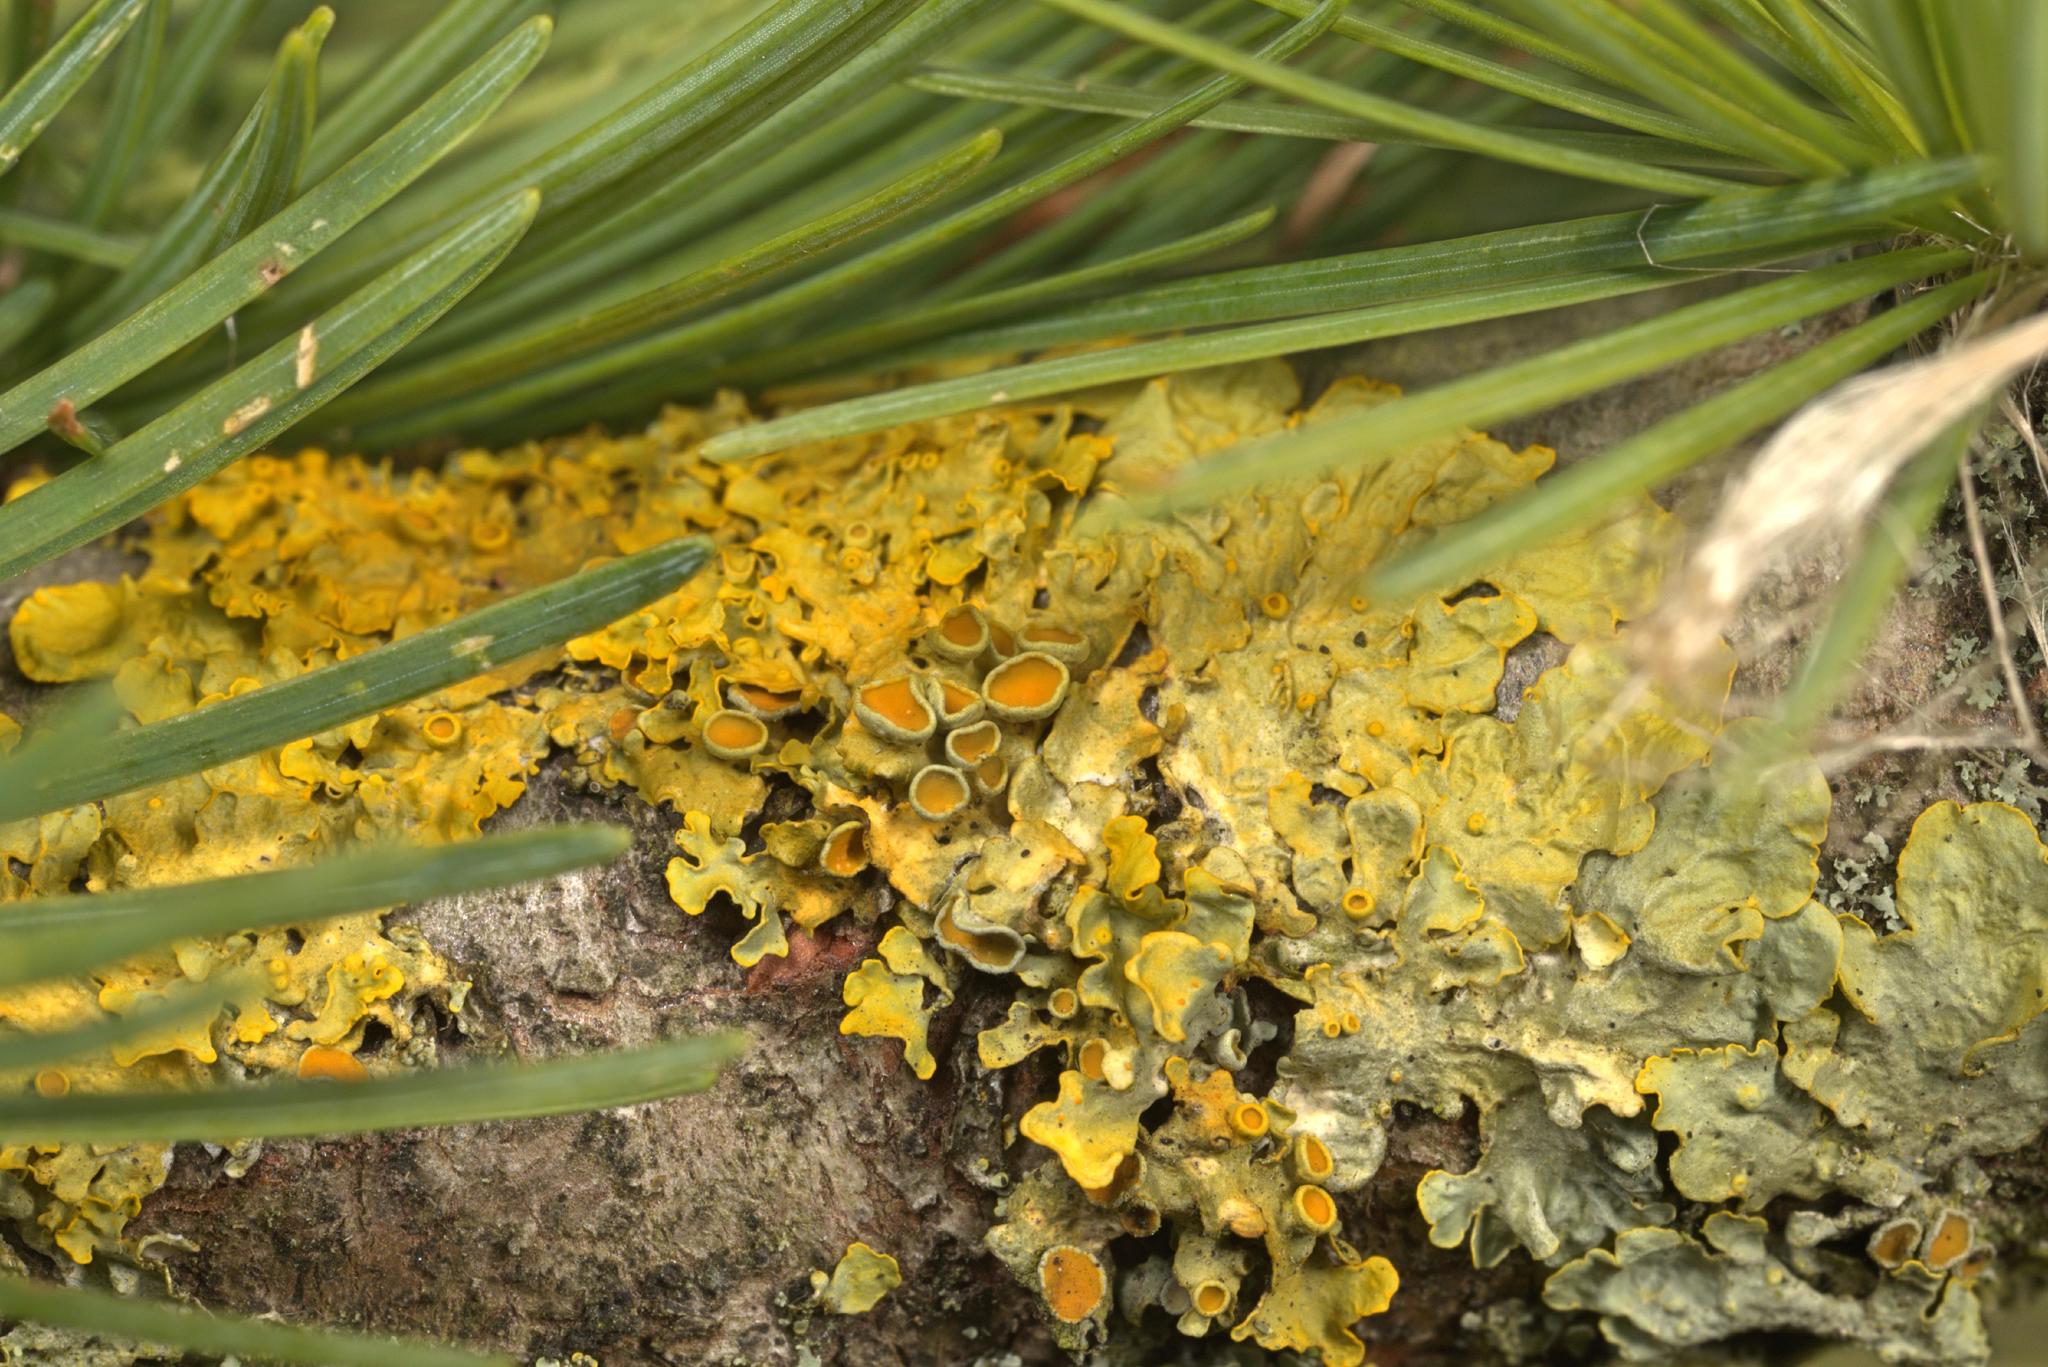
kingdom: Fungi
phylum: Ascomycota
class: Lecanoromycetes
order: Teloschistales
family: Teloschistaceae
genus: Xanthoria
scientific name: Xanthoria parietina
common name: Common orange lichen
